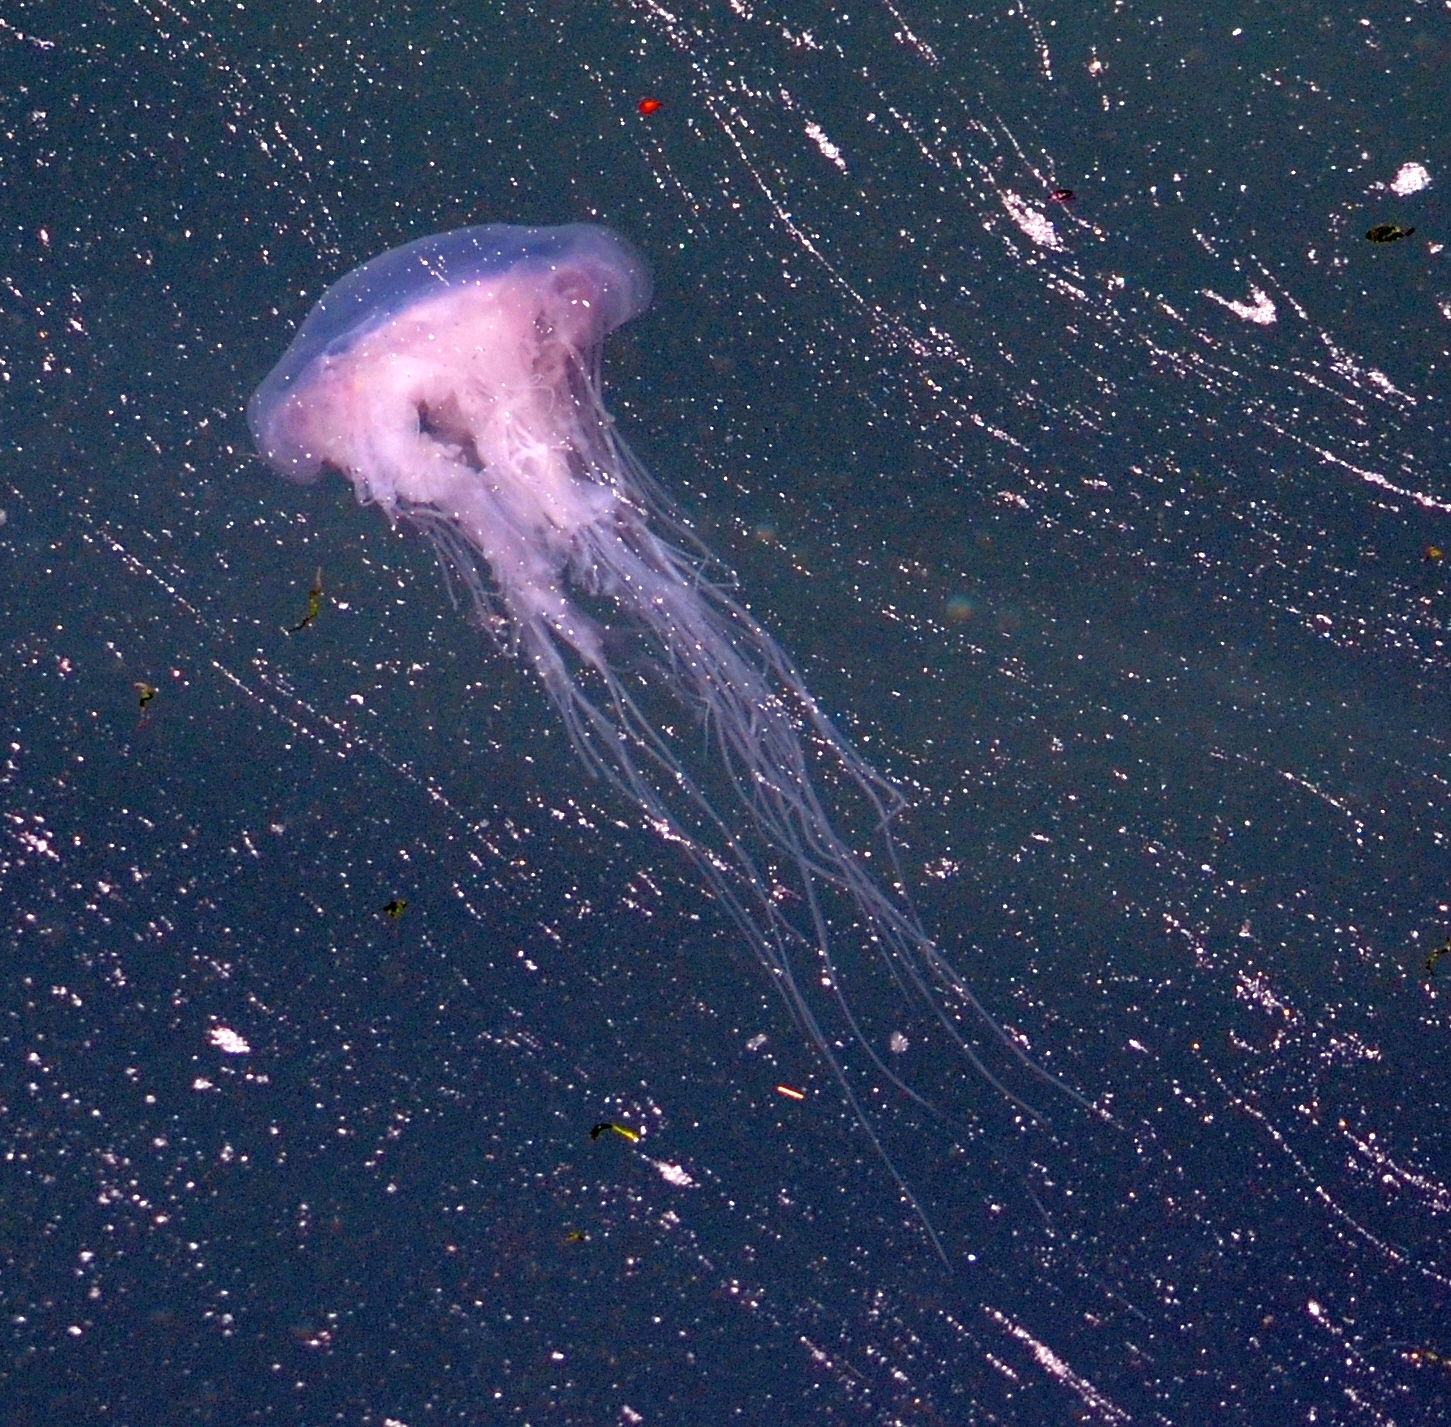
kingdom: Animalia
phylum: Cnidaria
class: Scyphozoa
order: Semaeostomeae
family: Cyaneidae
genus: Cyanea
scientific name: Cyanea lamarckii
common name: Blue jellyfish
